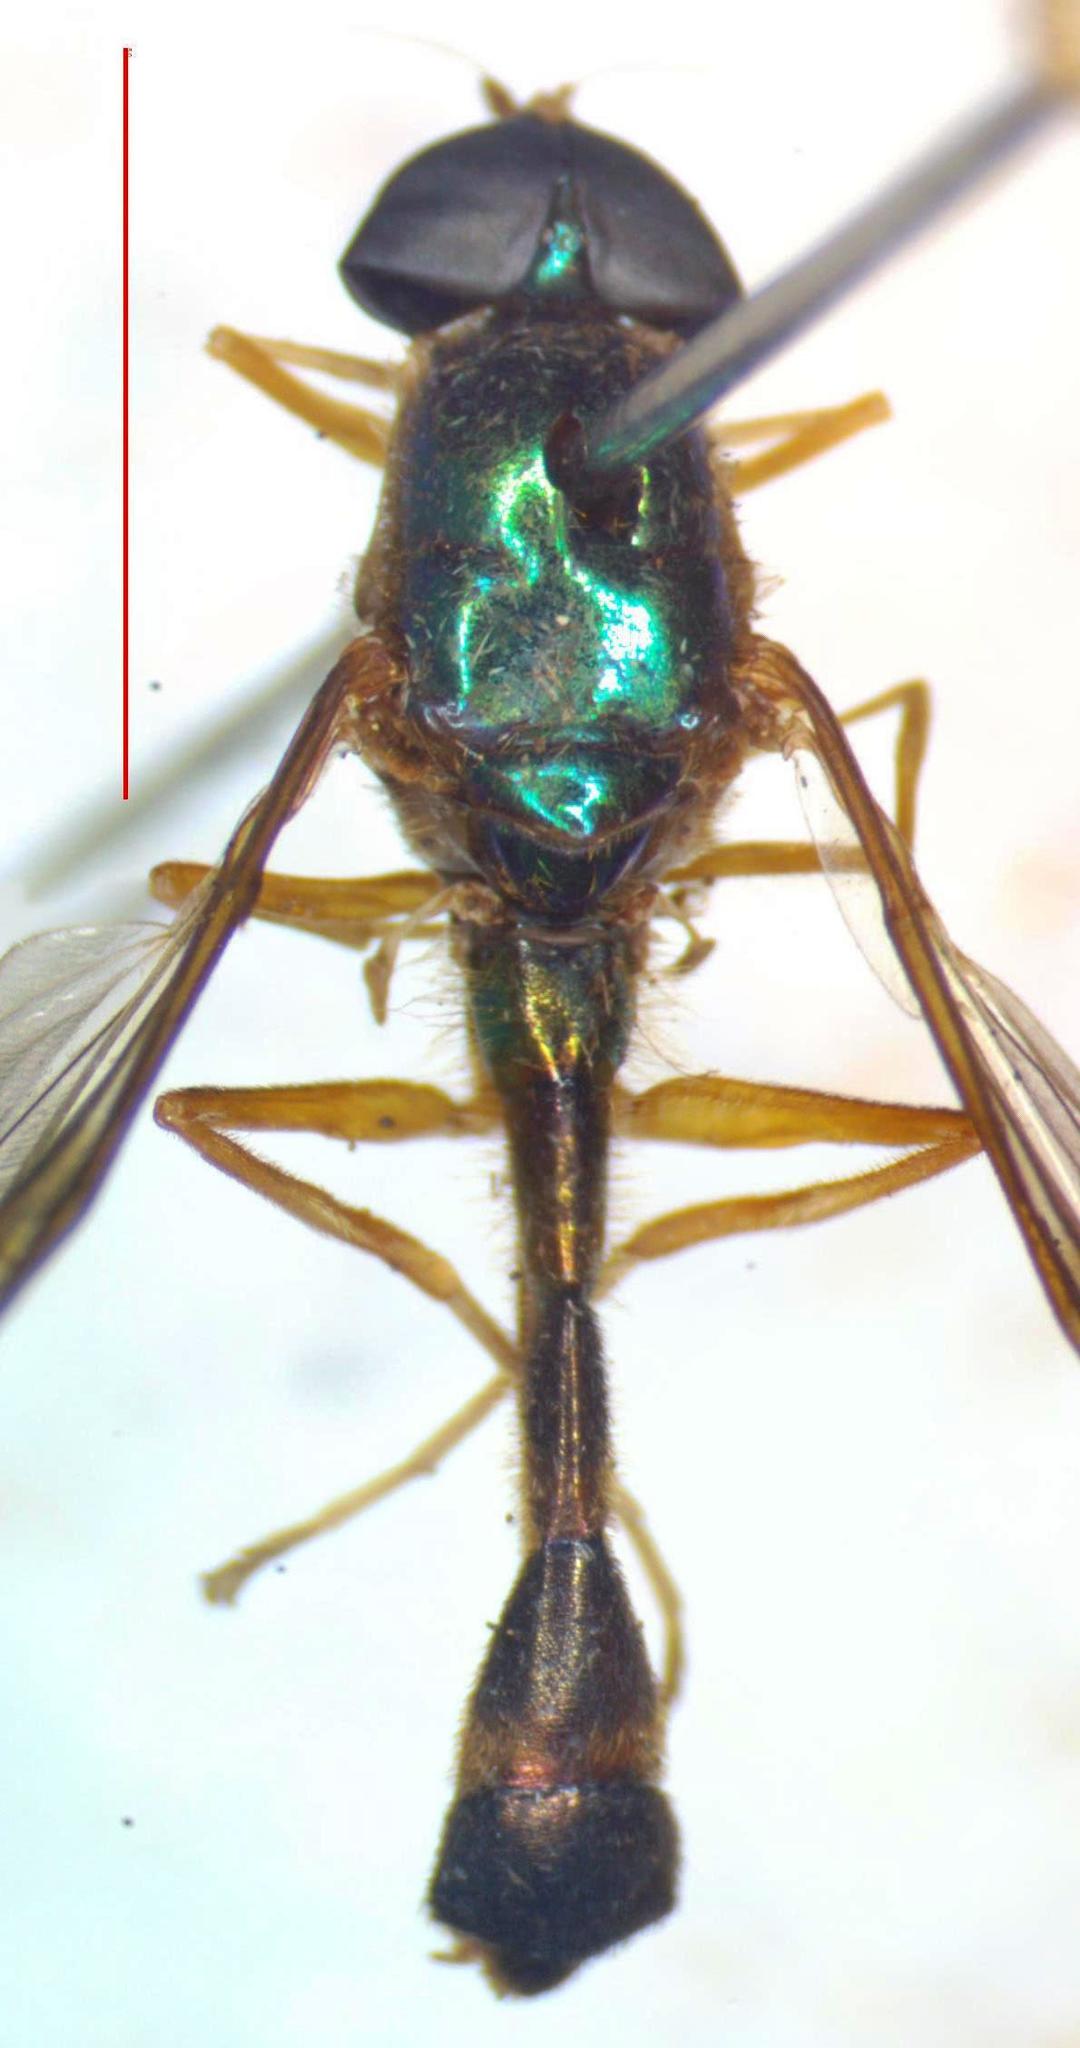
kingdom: Animalia
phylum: Arthropoda
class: Insecta
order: Diptera
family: Stratiomyidae
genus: Sargus
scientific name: Sargus speciosus
